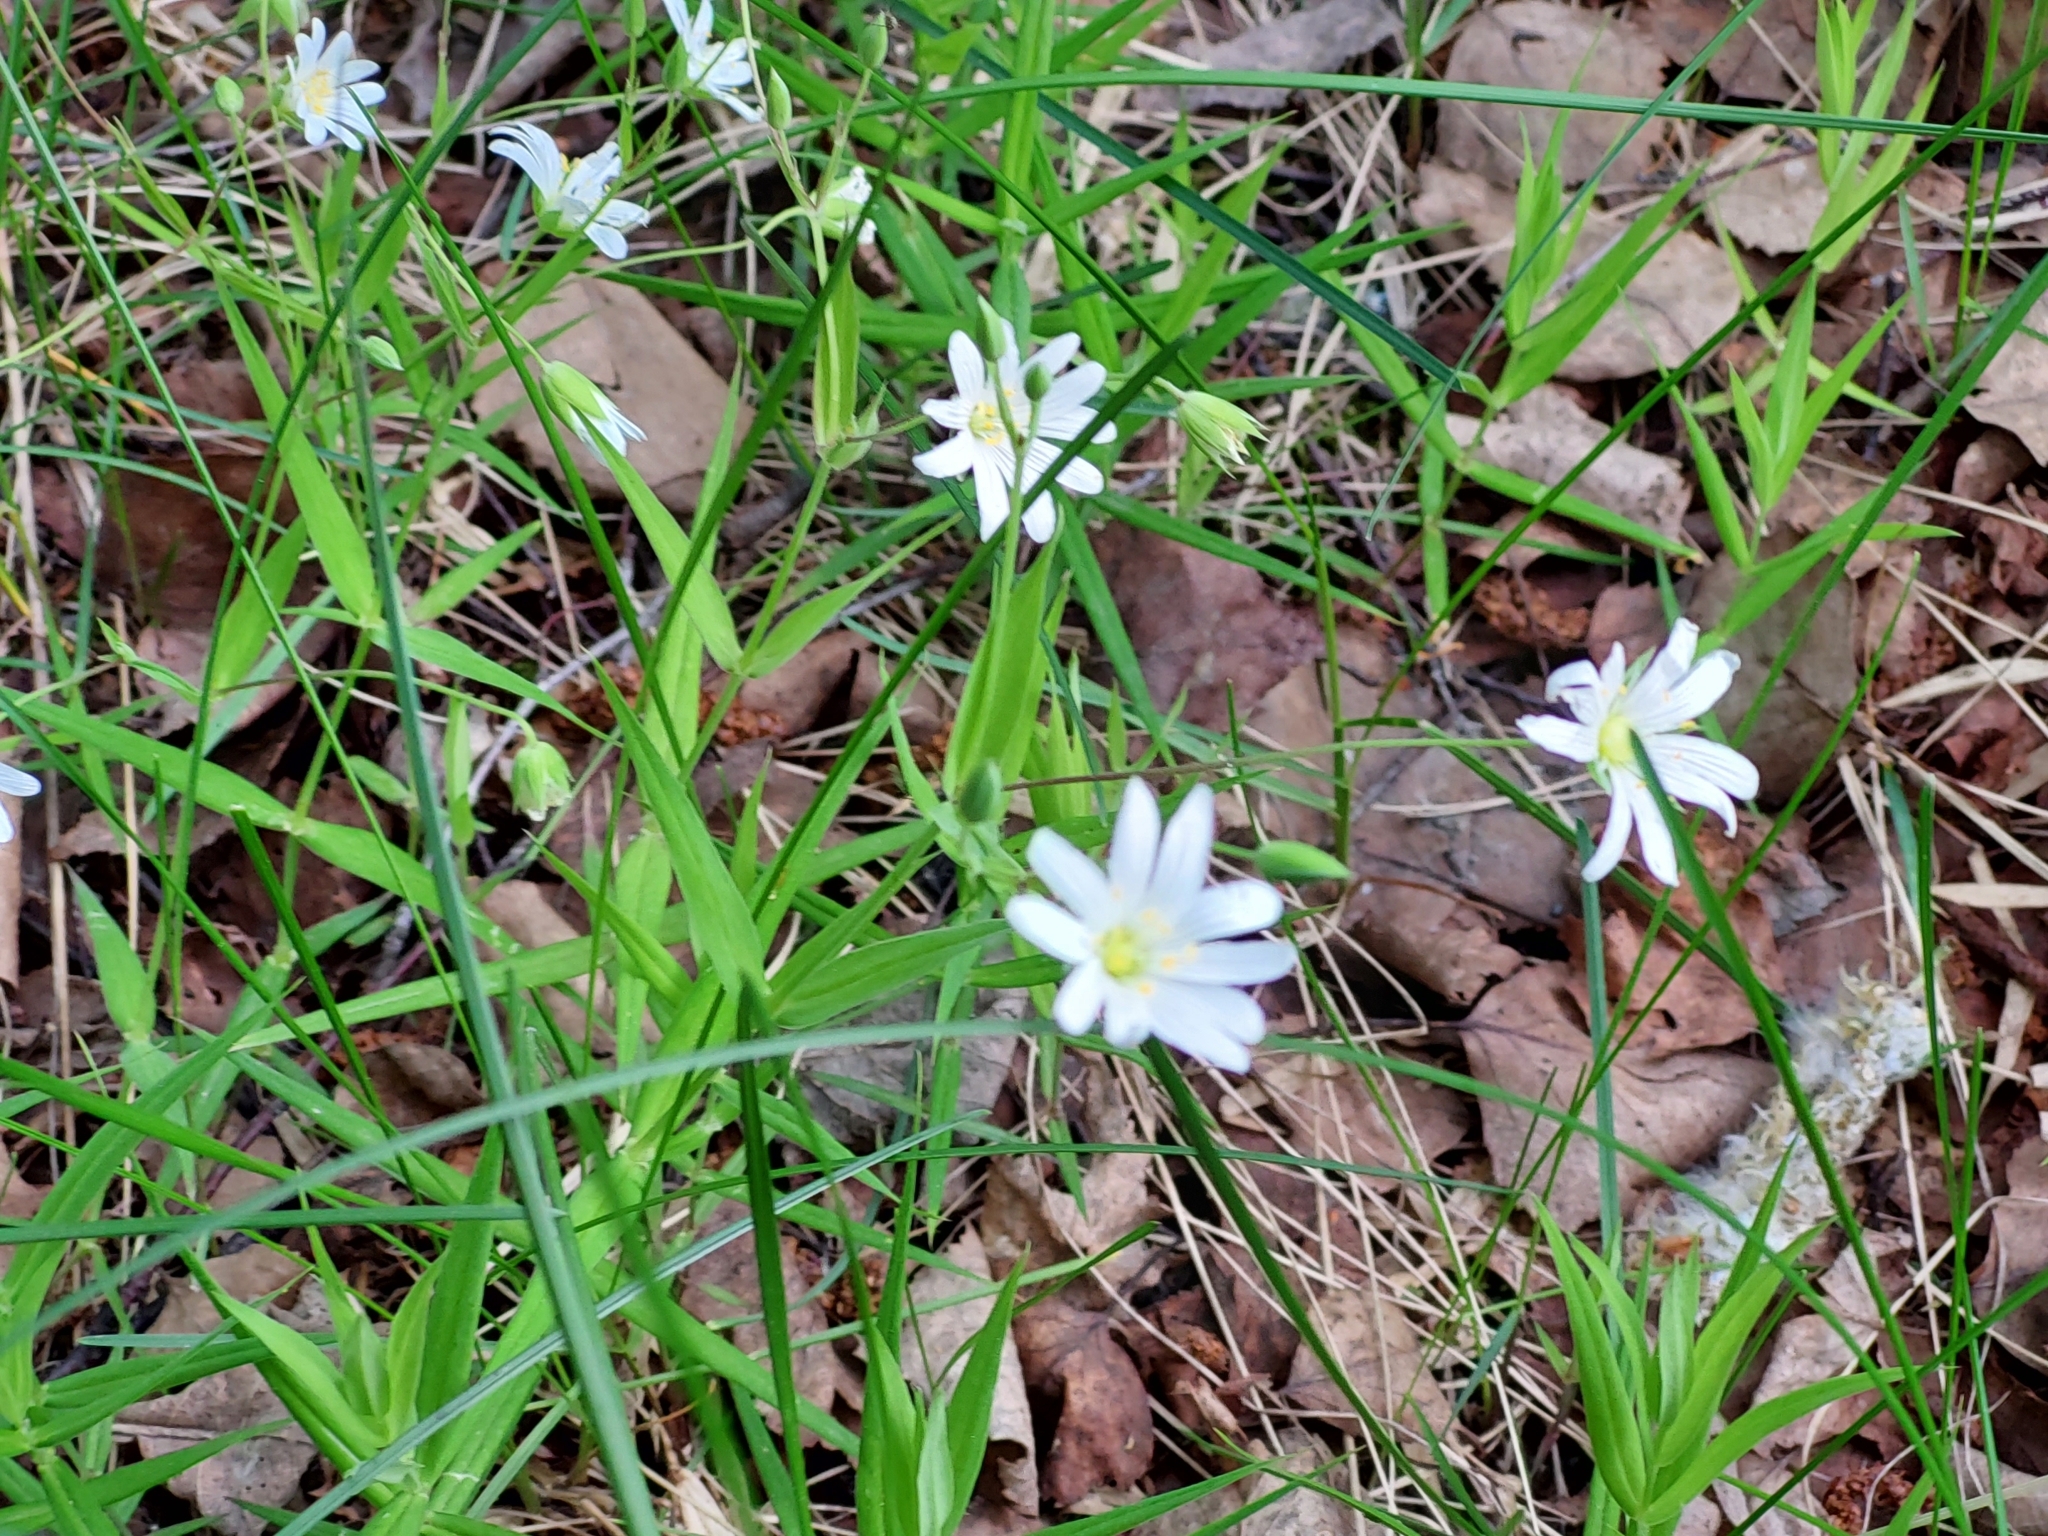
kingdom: Plantae
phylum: Tracheophyta
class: Magnoliopsida
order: Caryophyllales
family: Caryophyllaceae
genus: Rabelera
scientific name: Rabelera holostea
